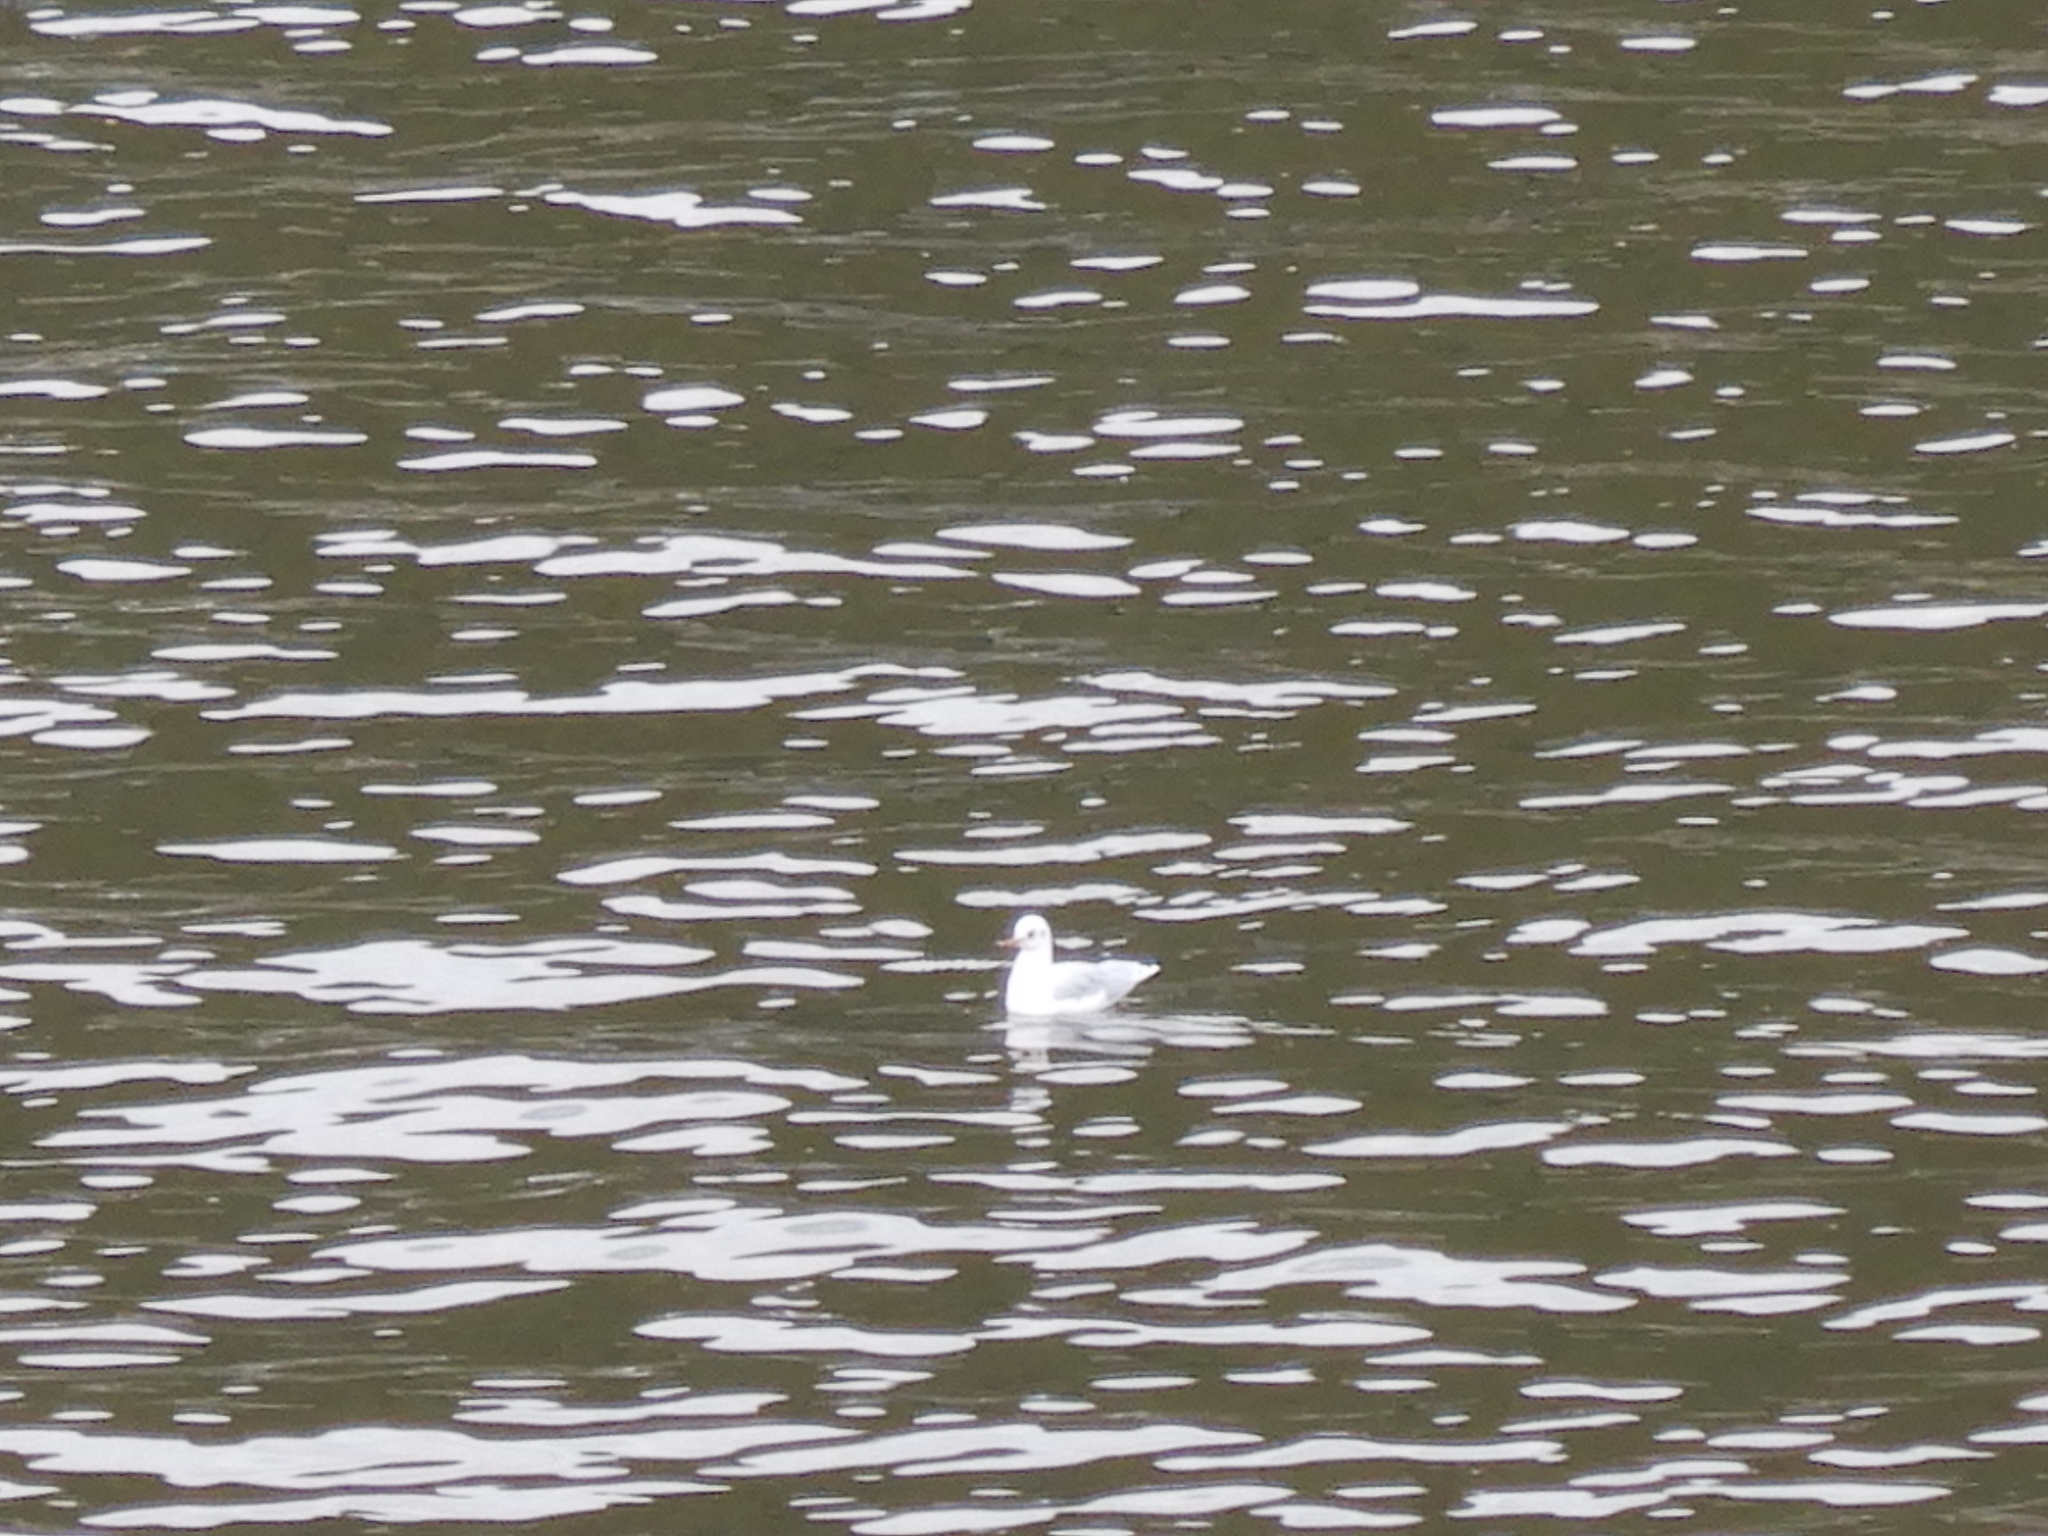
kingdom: Animalia
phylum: Chordata
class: Aves
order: Charadriiformes
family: Laridae
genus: Chroicocephalus
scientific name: Chroicocephalus ridibundus
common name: Black-headed gull
